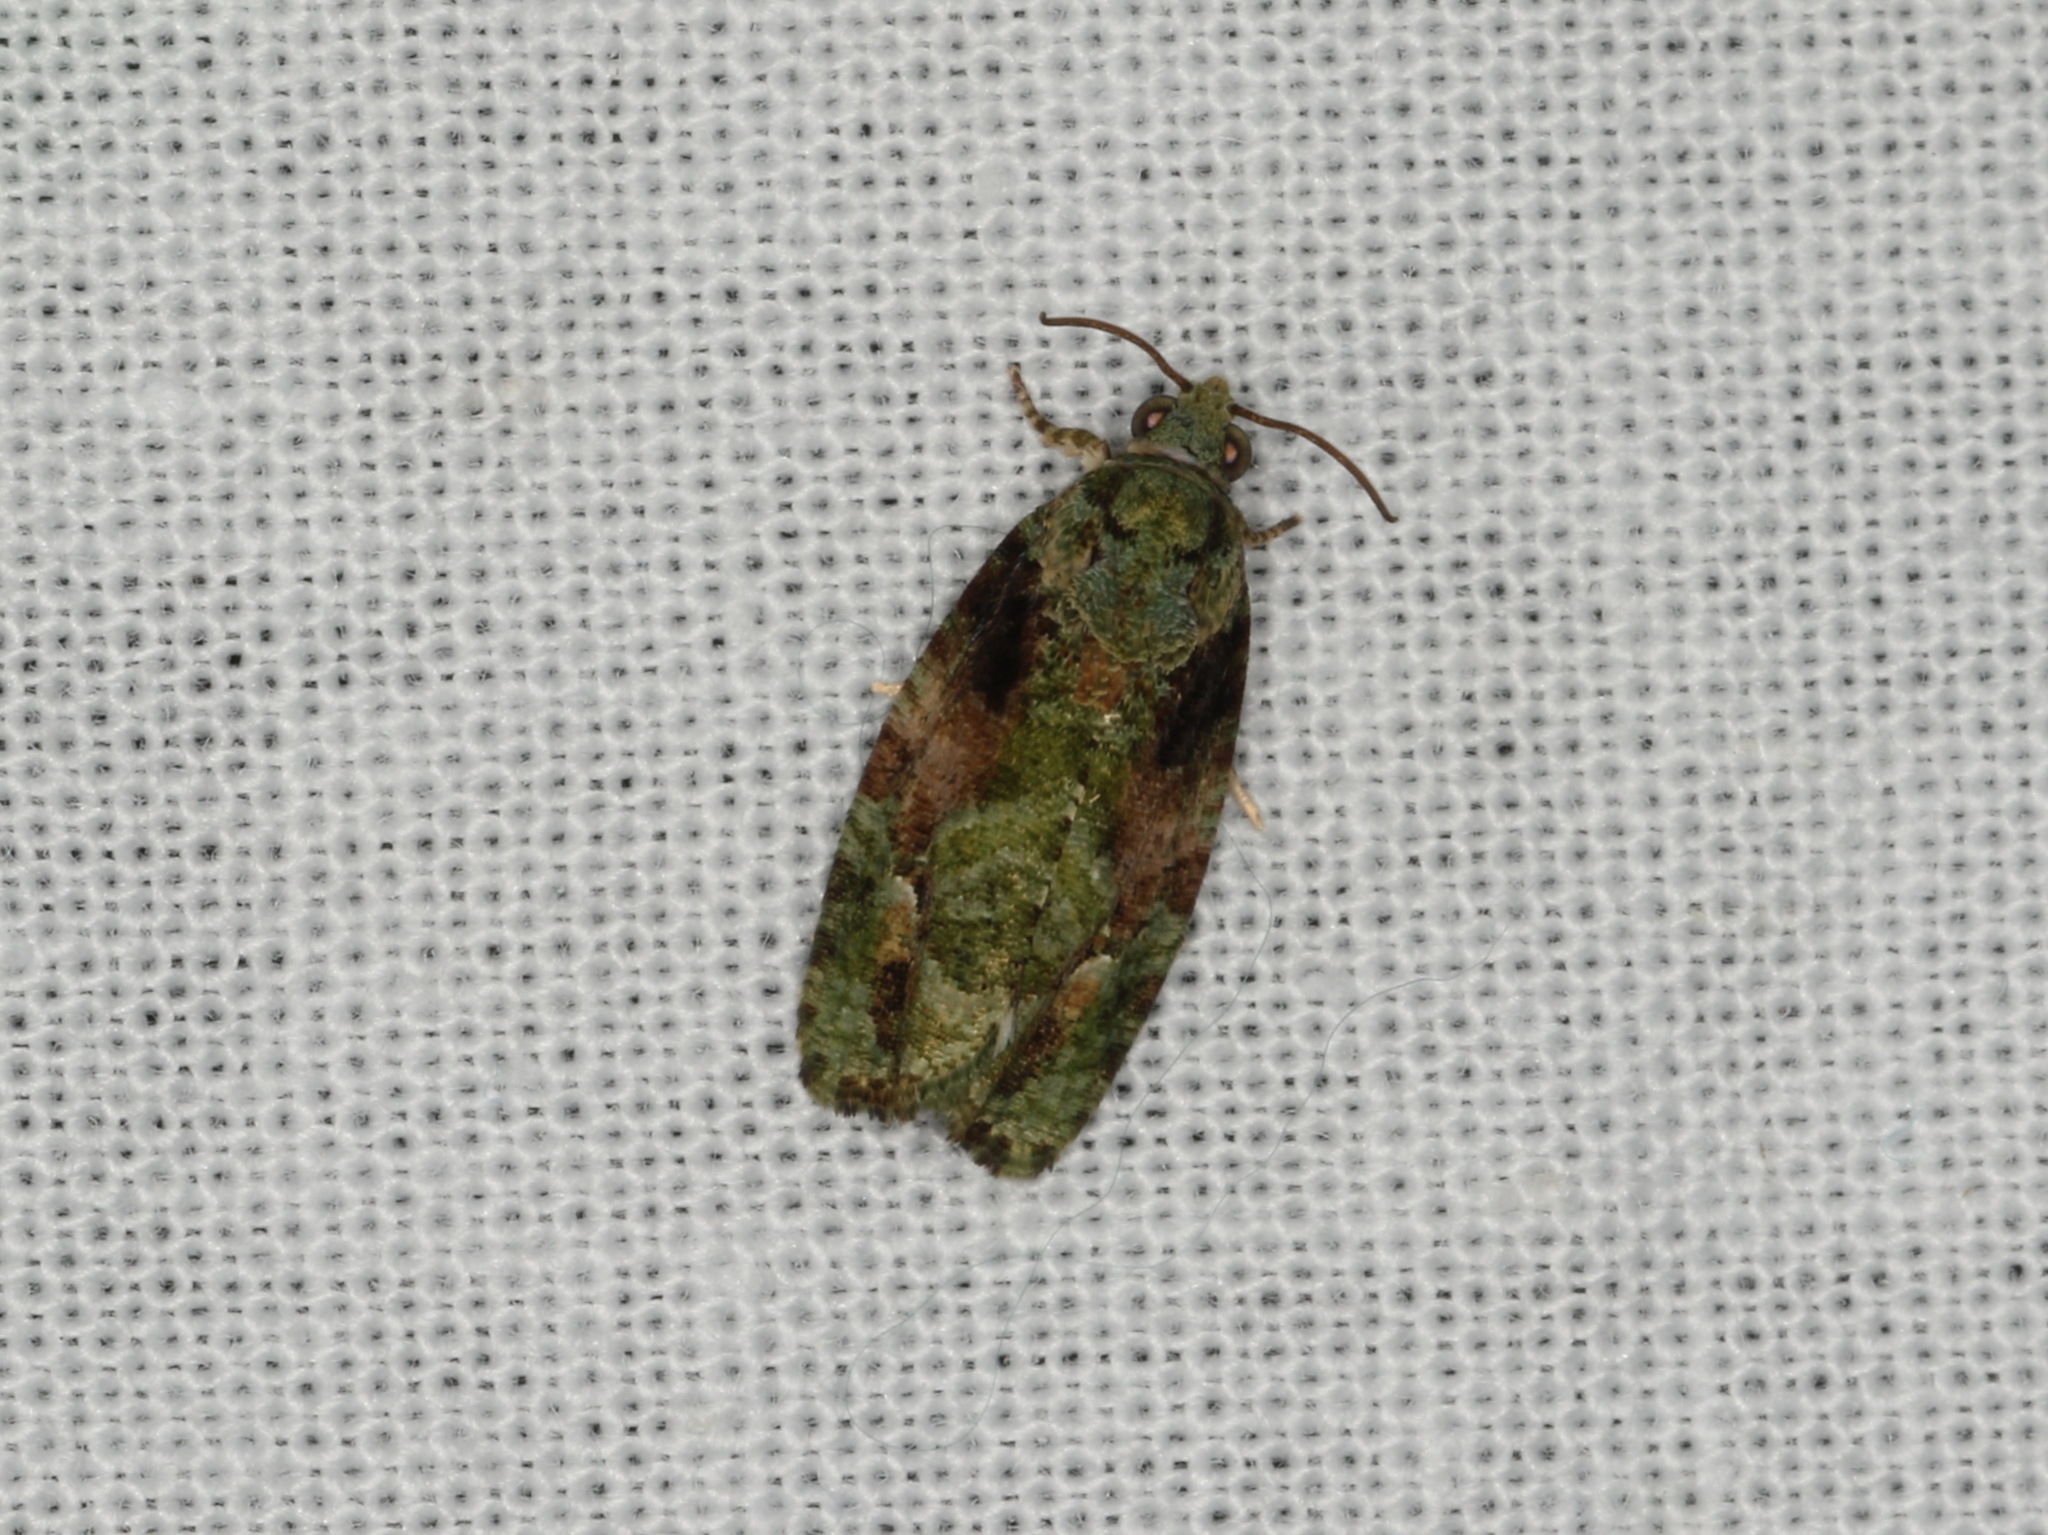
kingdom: Animalia
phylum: Arthropoda
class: Insecta
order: Lepidoptera
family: Tortricidae
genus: Sorolopha
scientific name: Sorolopha delochlora
